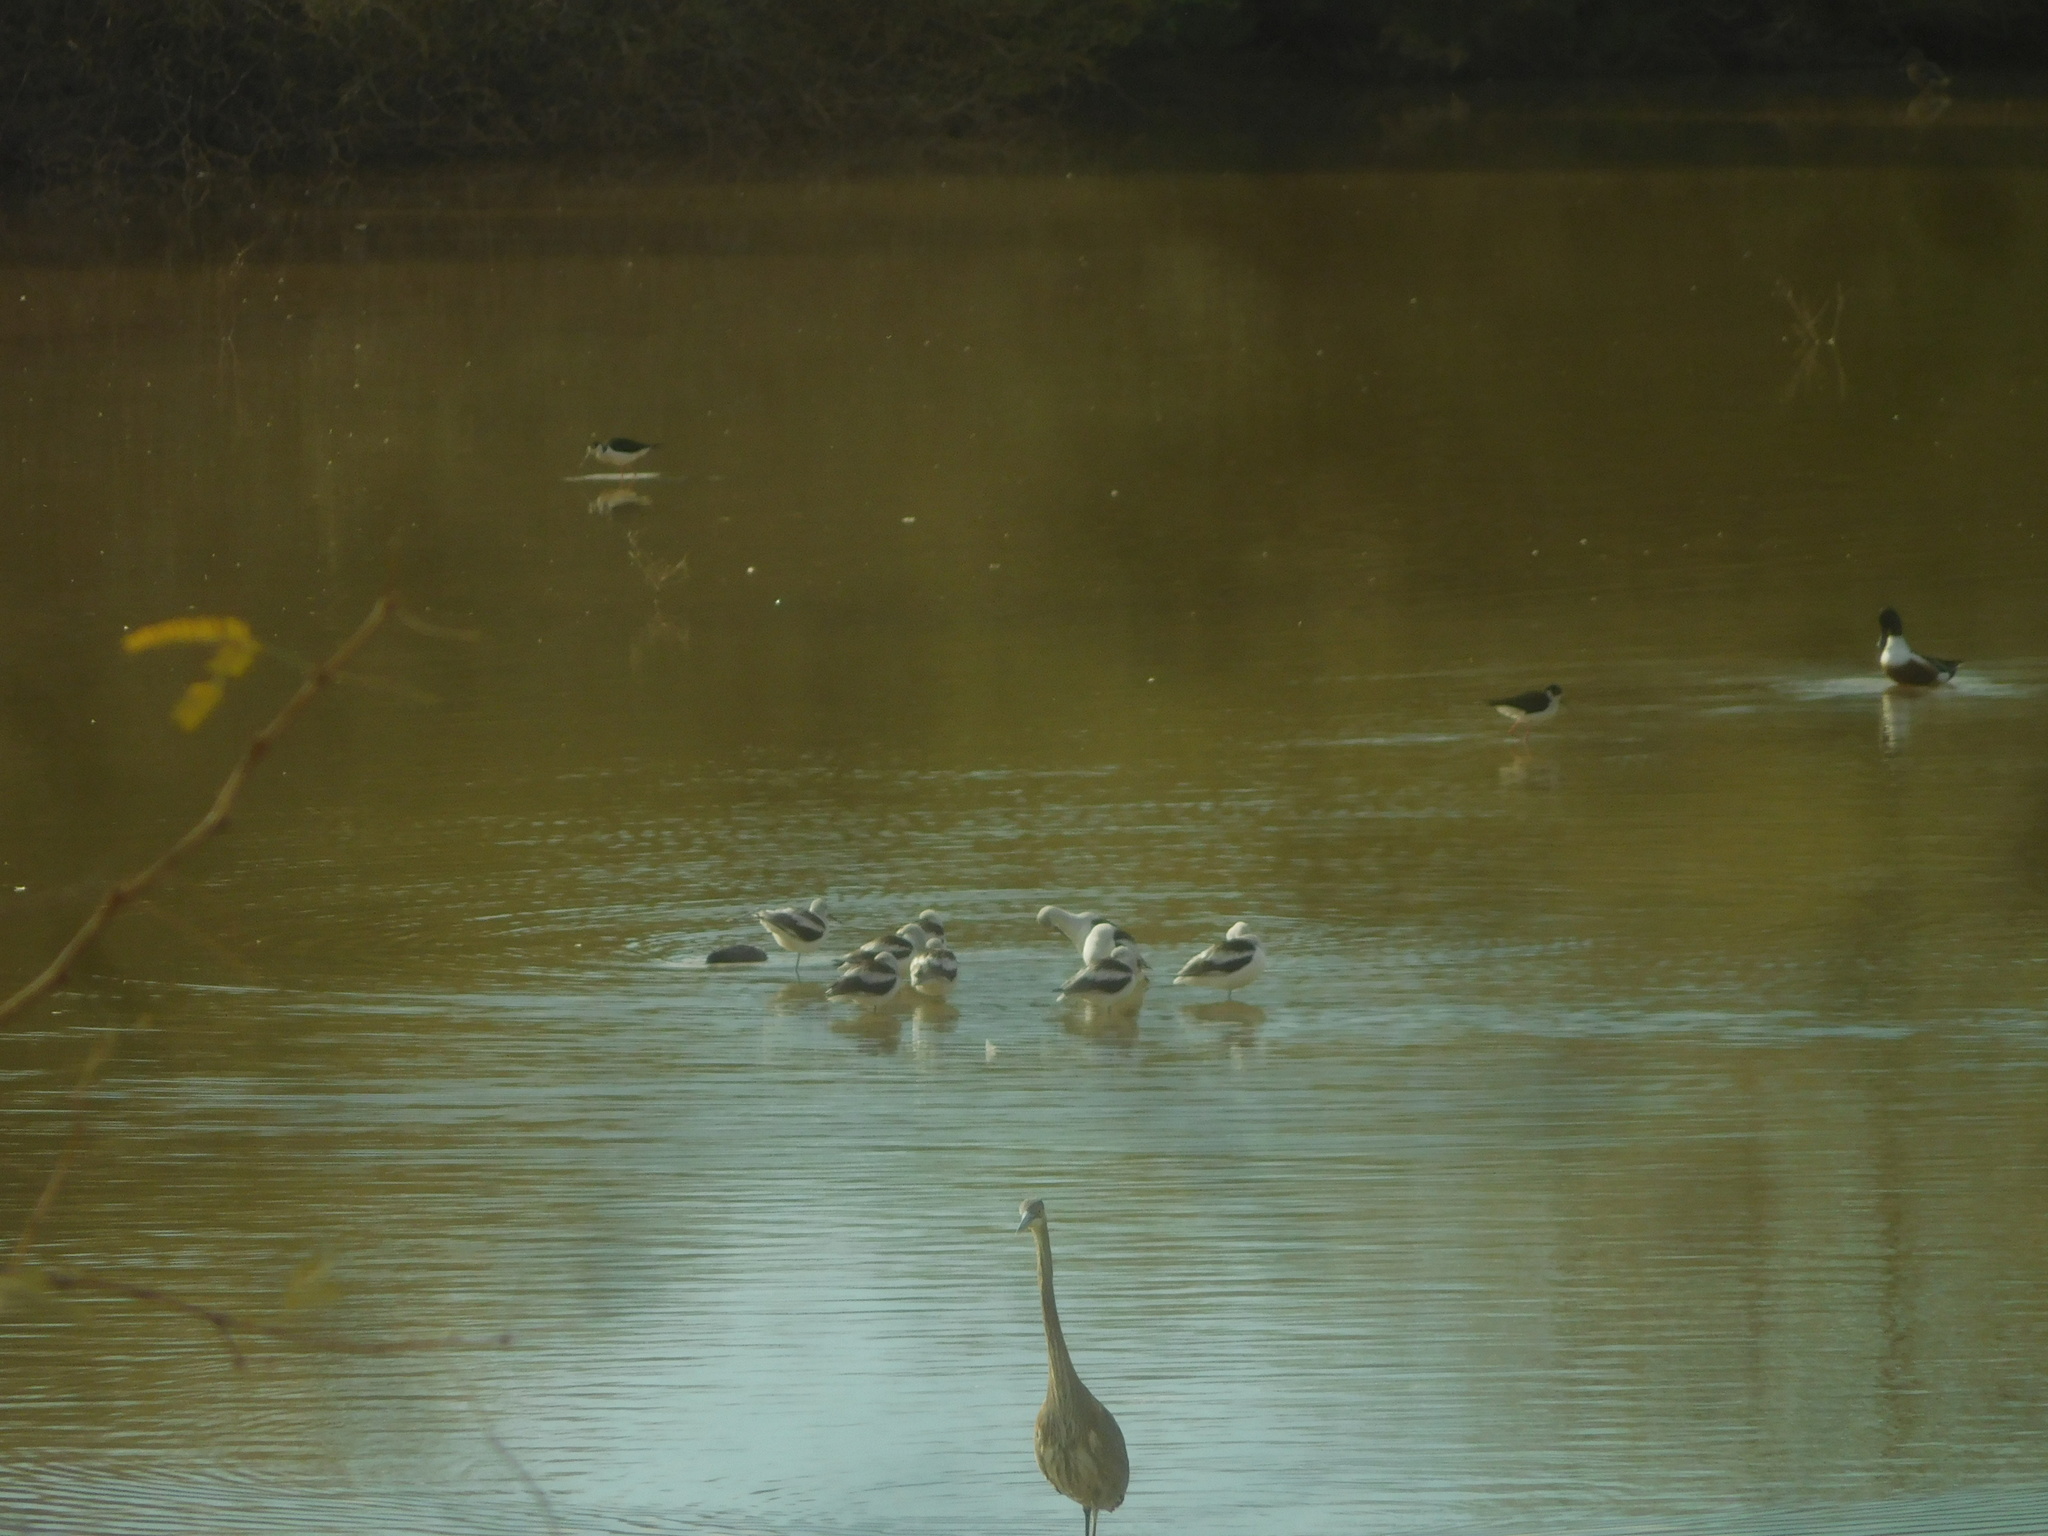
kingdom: Animalia
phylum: Chordata
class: Aves
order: Charadriiformes
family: Recurvirostridae
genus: Recurvirostra
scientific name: Recurvirostra americana
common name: American avocet
